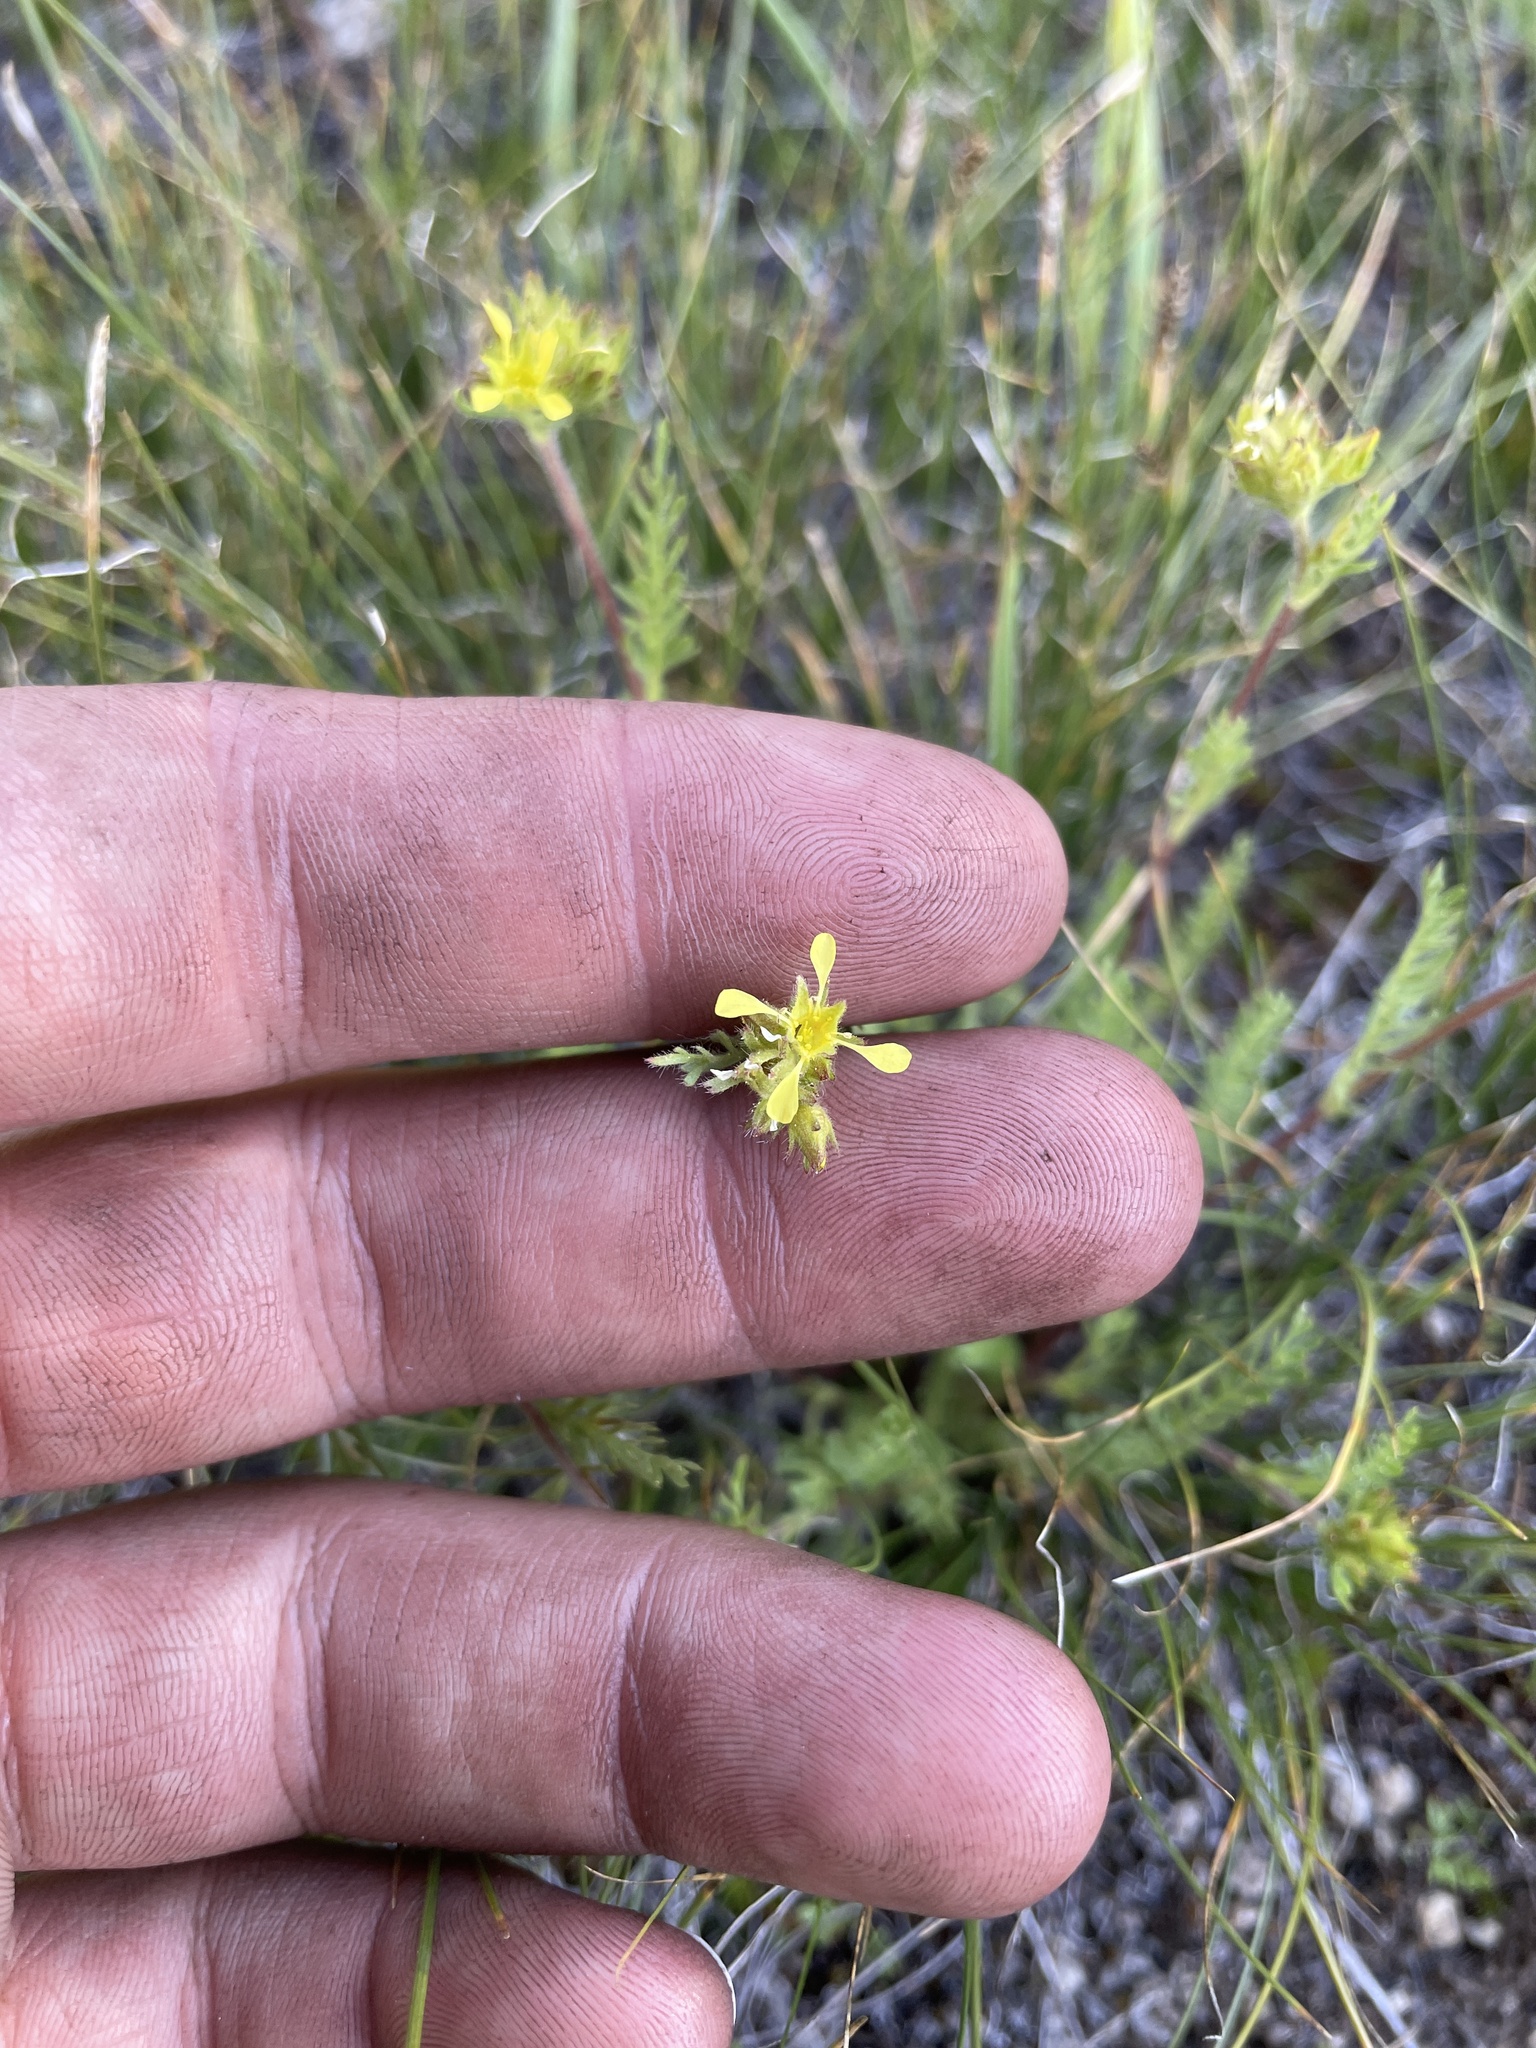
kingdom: Plantae
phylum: Tracheophyta
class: Magnoliopsida
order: Rosales
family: Rosaceae
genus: Potentilla
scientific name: Potentilla campestris
